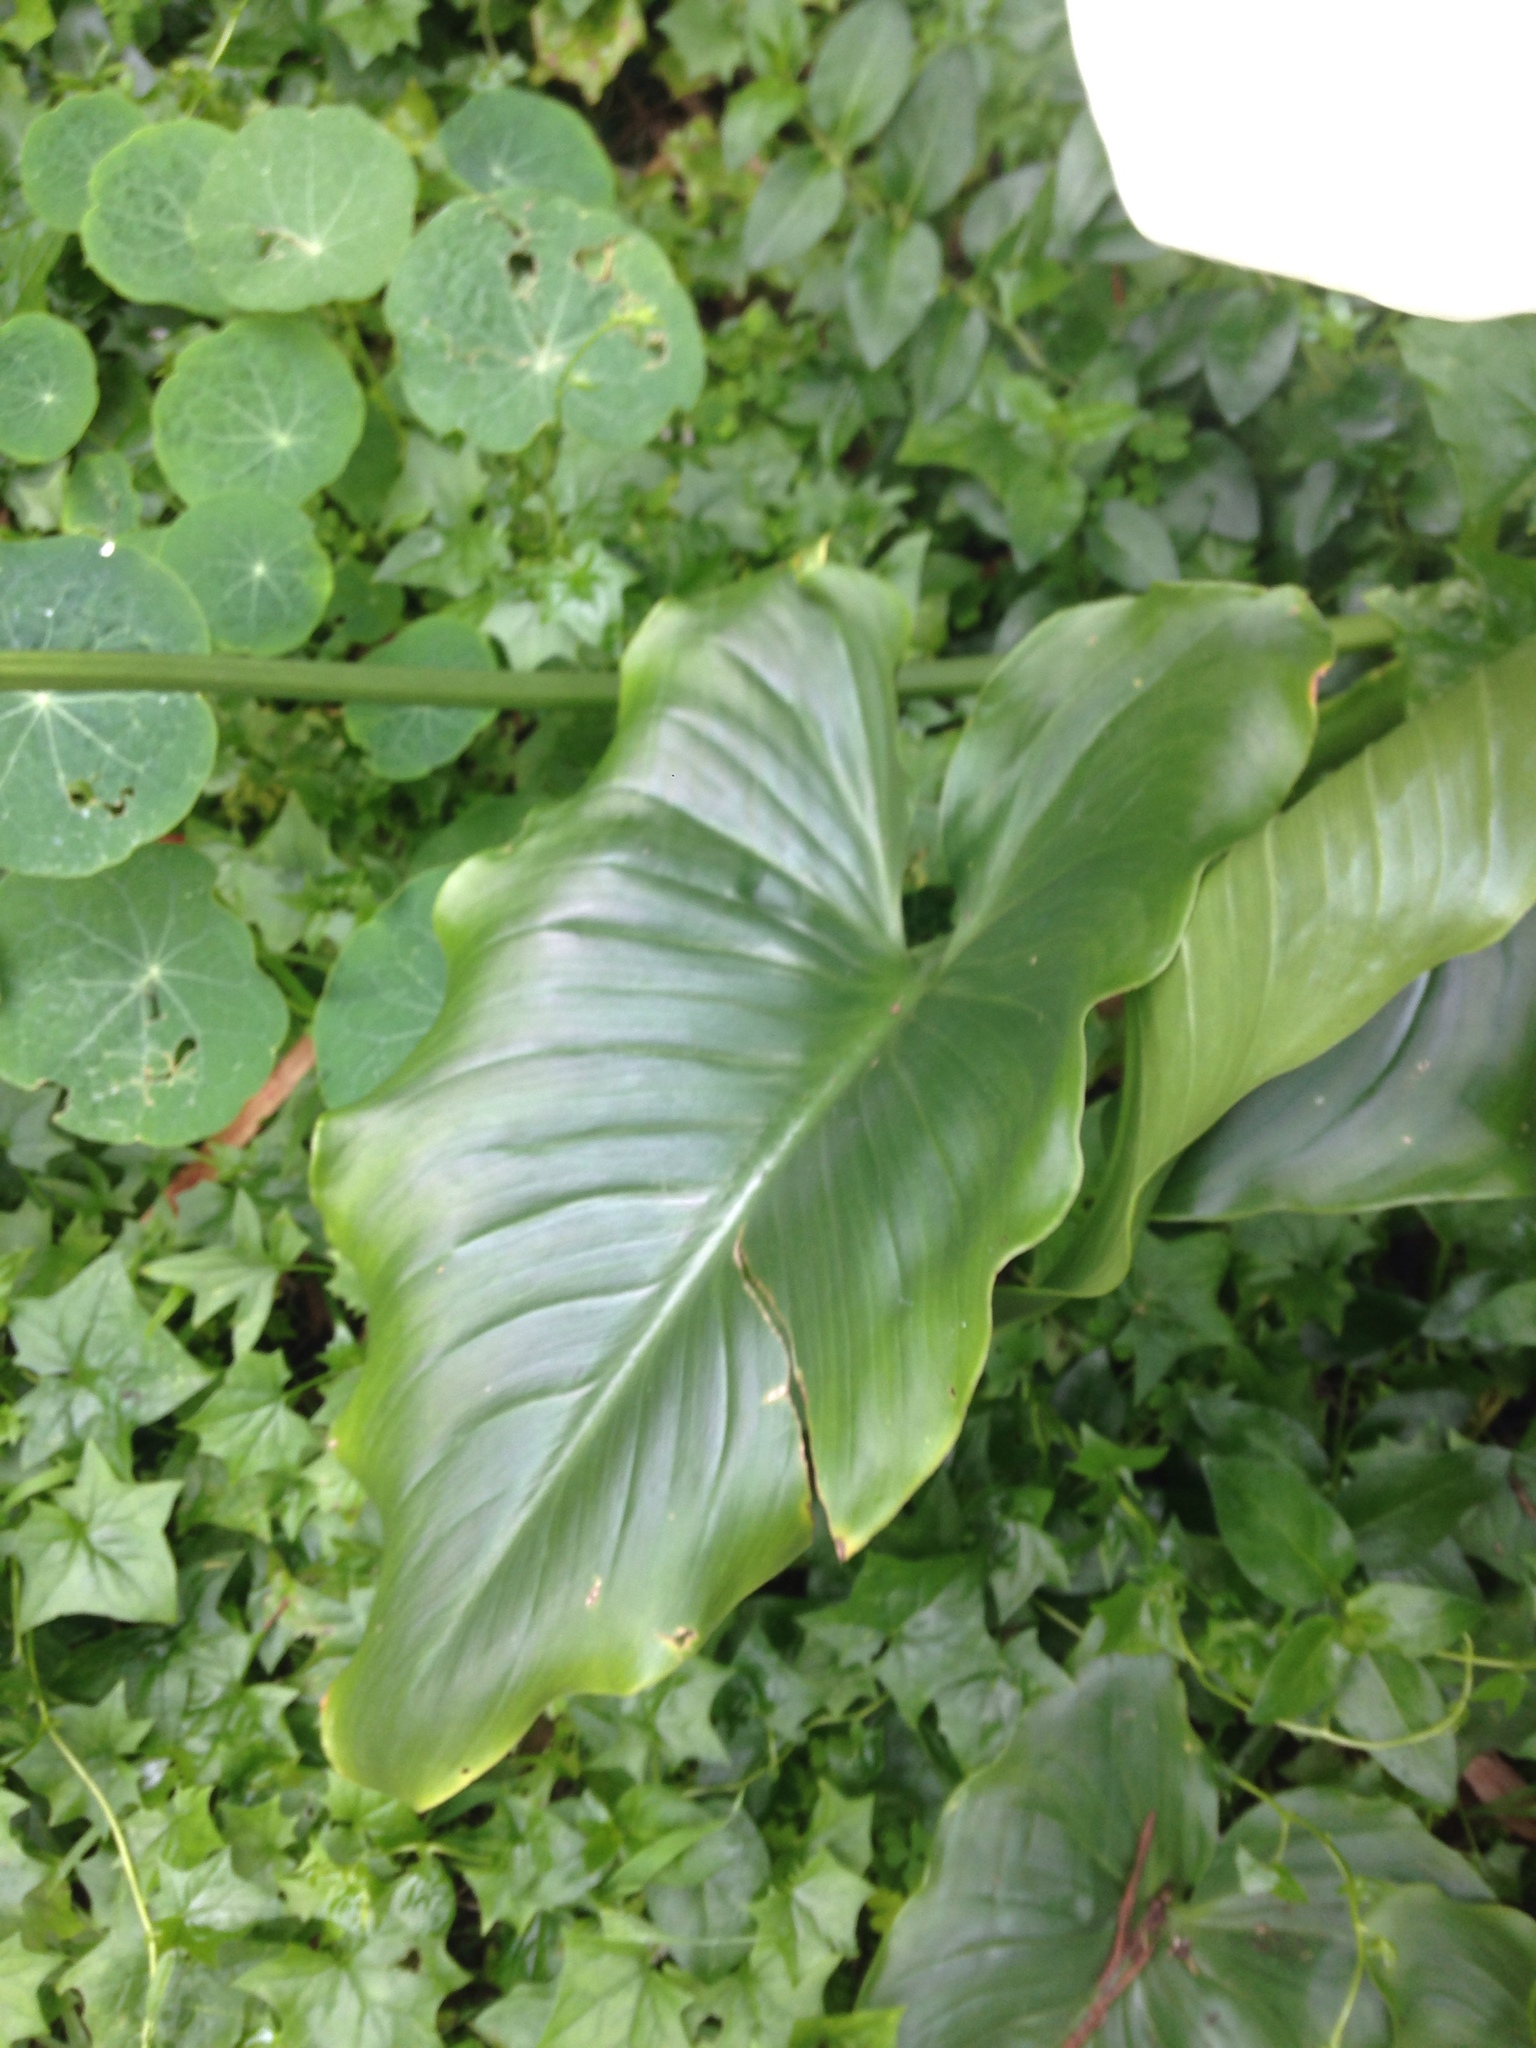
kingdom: Plantae
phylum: Tracheophyta
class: Liliopsida
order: Alismatales
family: Araceae
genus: Zantedeschia
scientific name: Zantedeschia aethiopica
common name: Altar-lily
